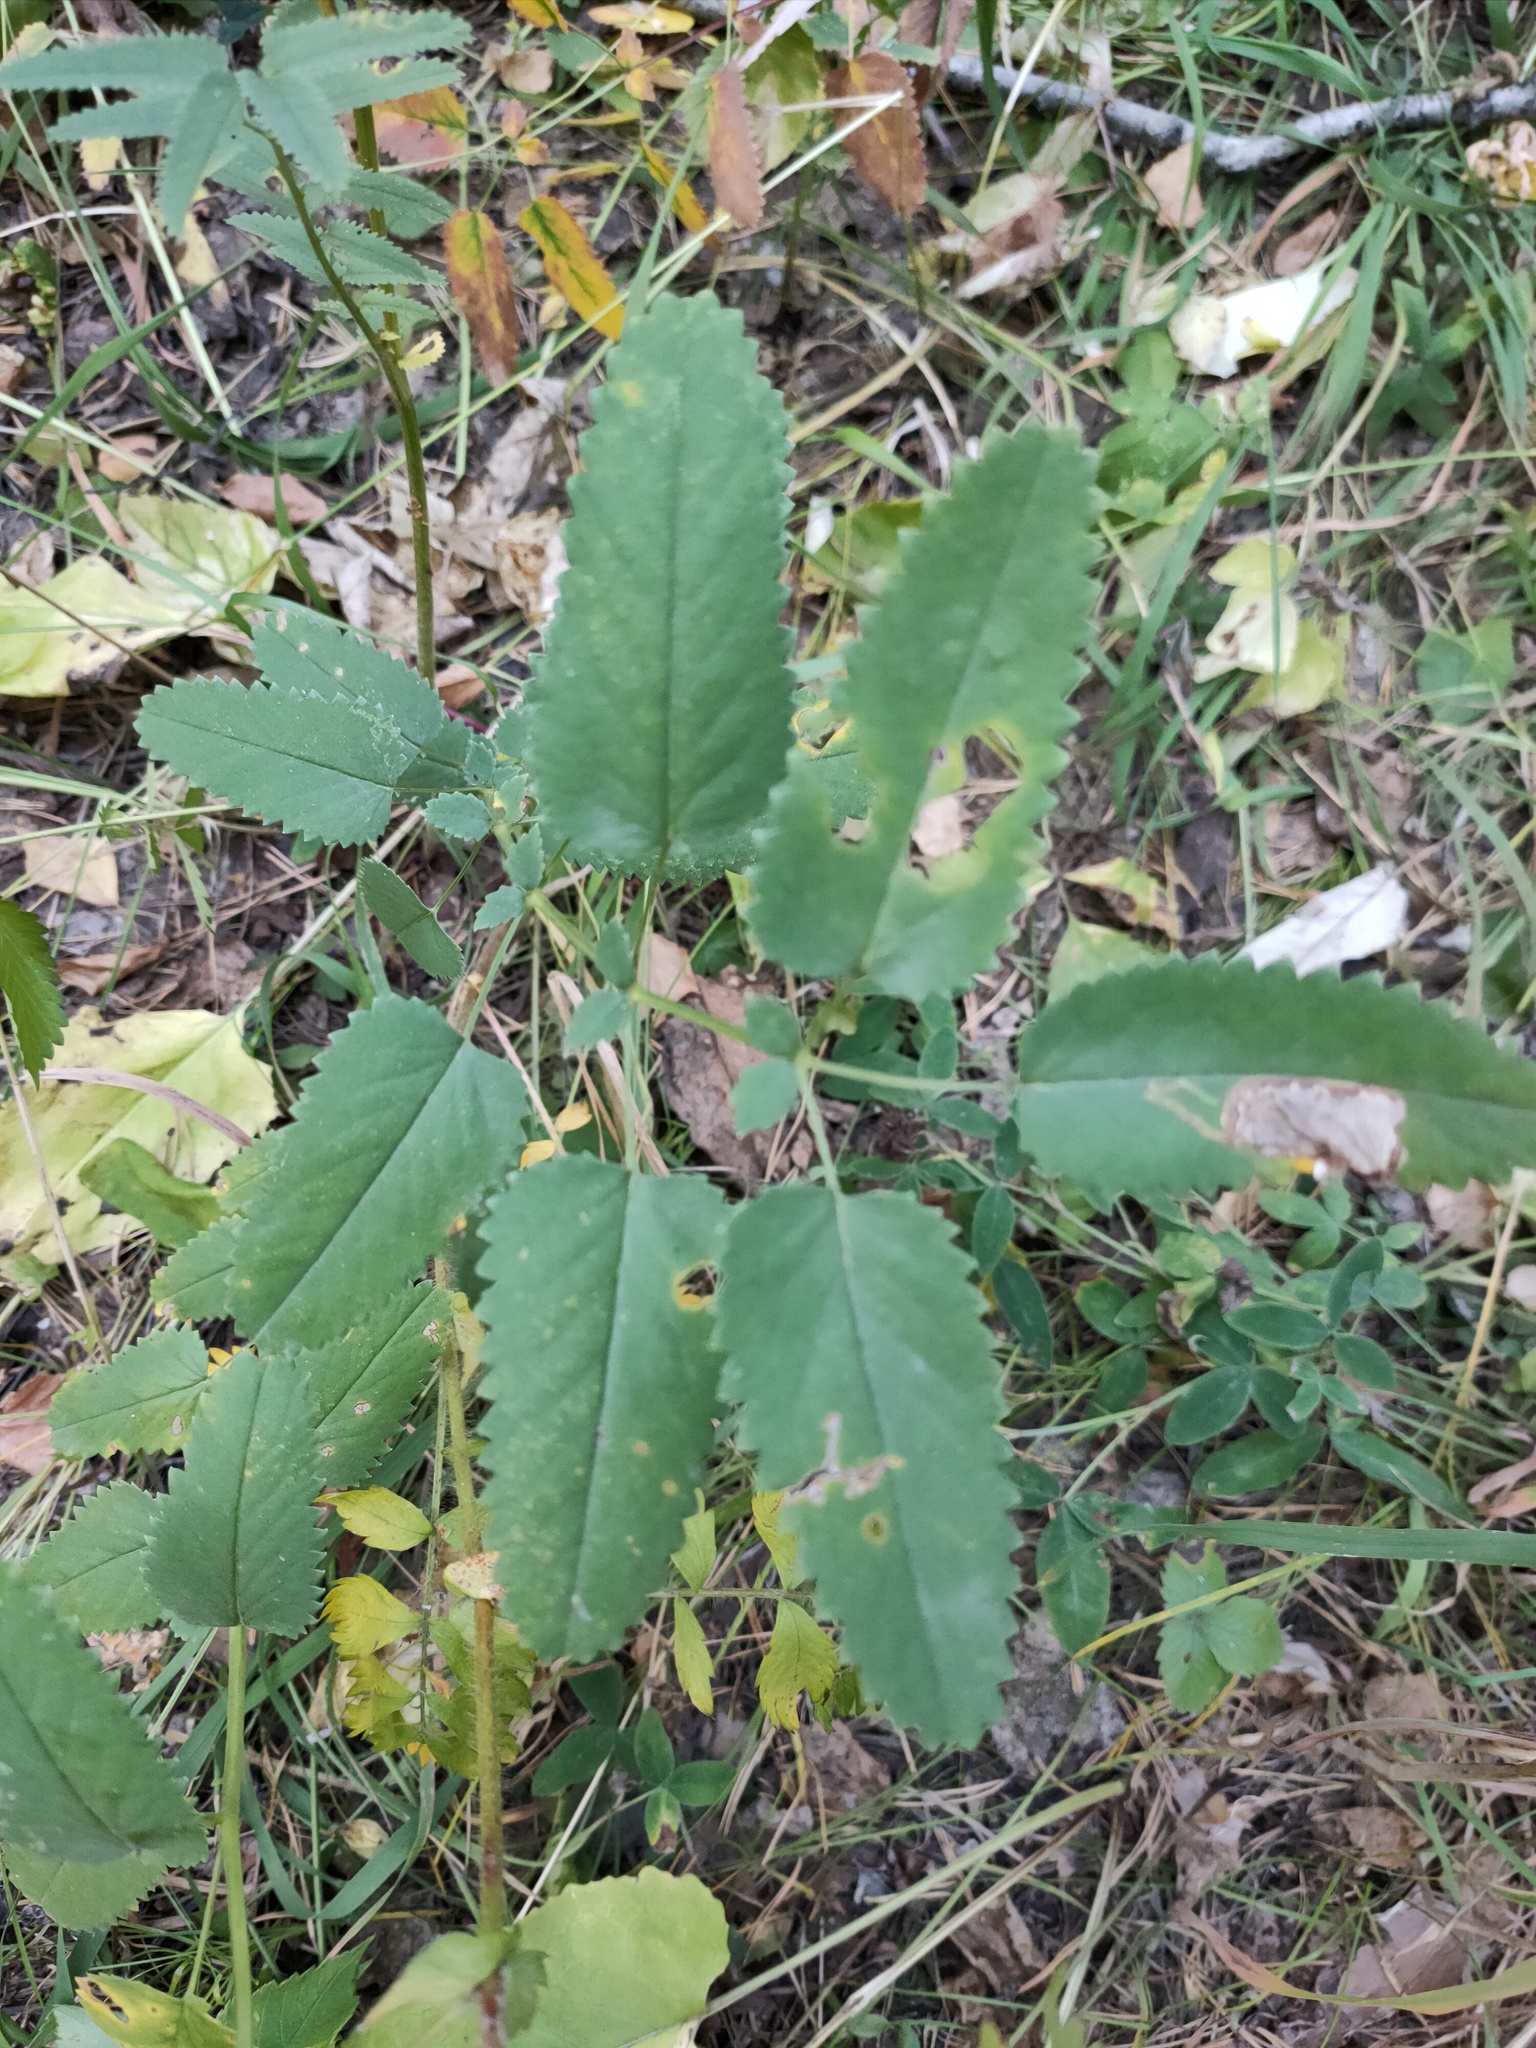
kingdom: Plantae
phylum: Tracheophyta
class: Magnoliopsida
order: Rosales
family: Rosaceae
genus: Sanguisorba
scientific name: Sanguisorba officinalis
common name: Great burnet
